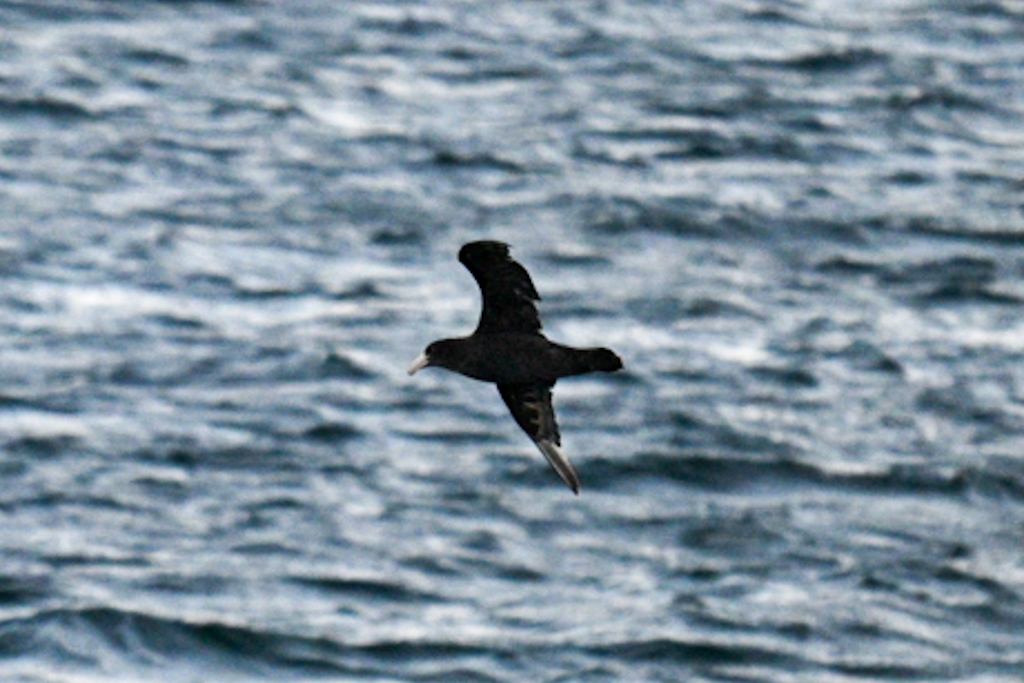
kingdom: Animalia
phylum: Chordata
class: Aves
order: Procellariiformes
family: Procellariidae
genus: Macronectes
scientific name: Macronectes giganteus
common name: Southern giant petrel
